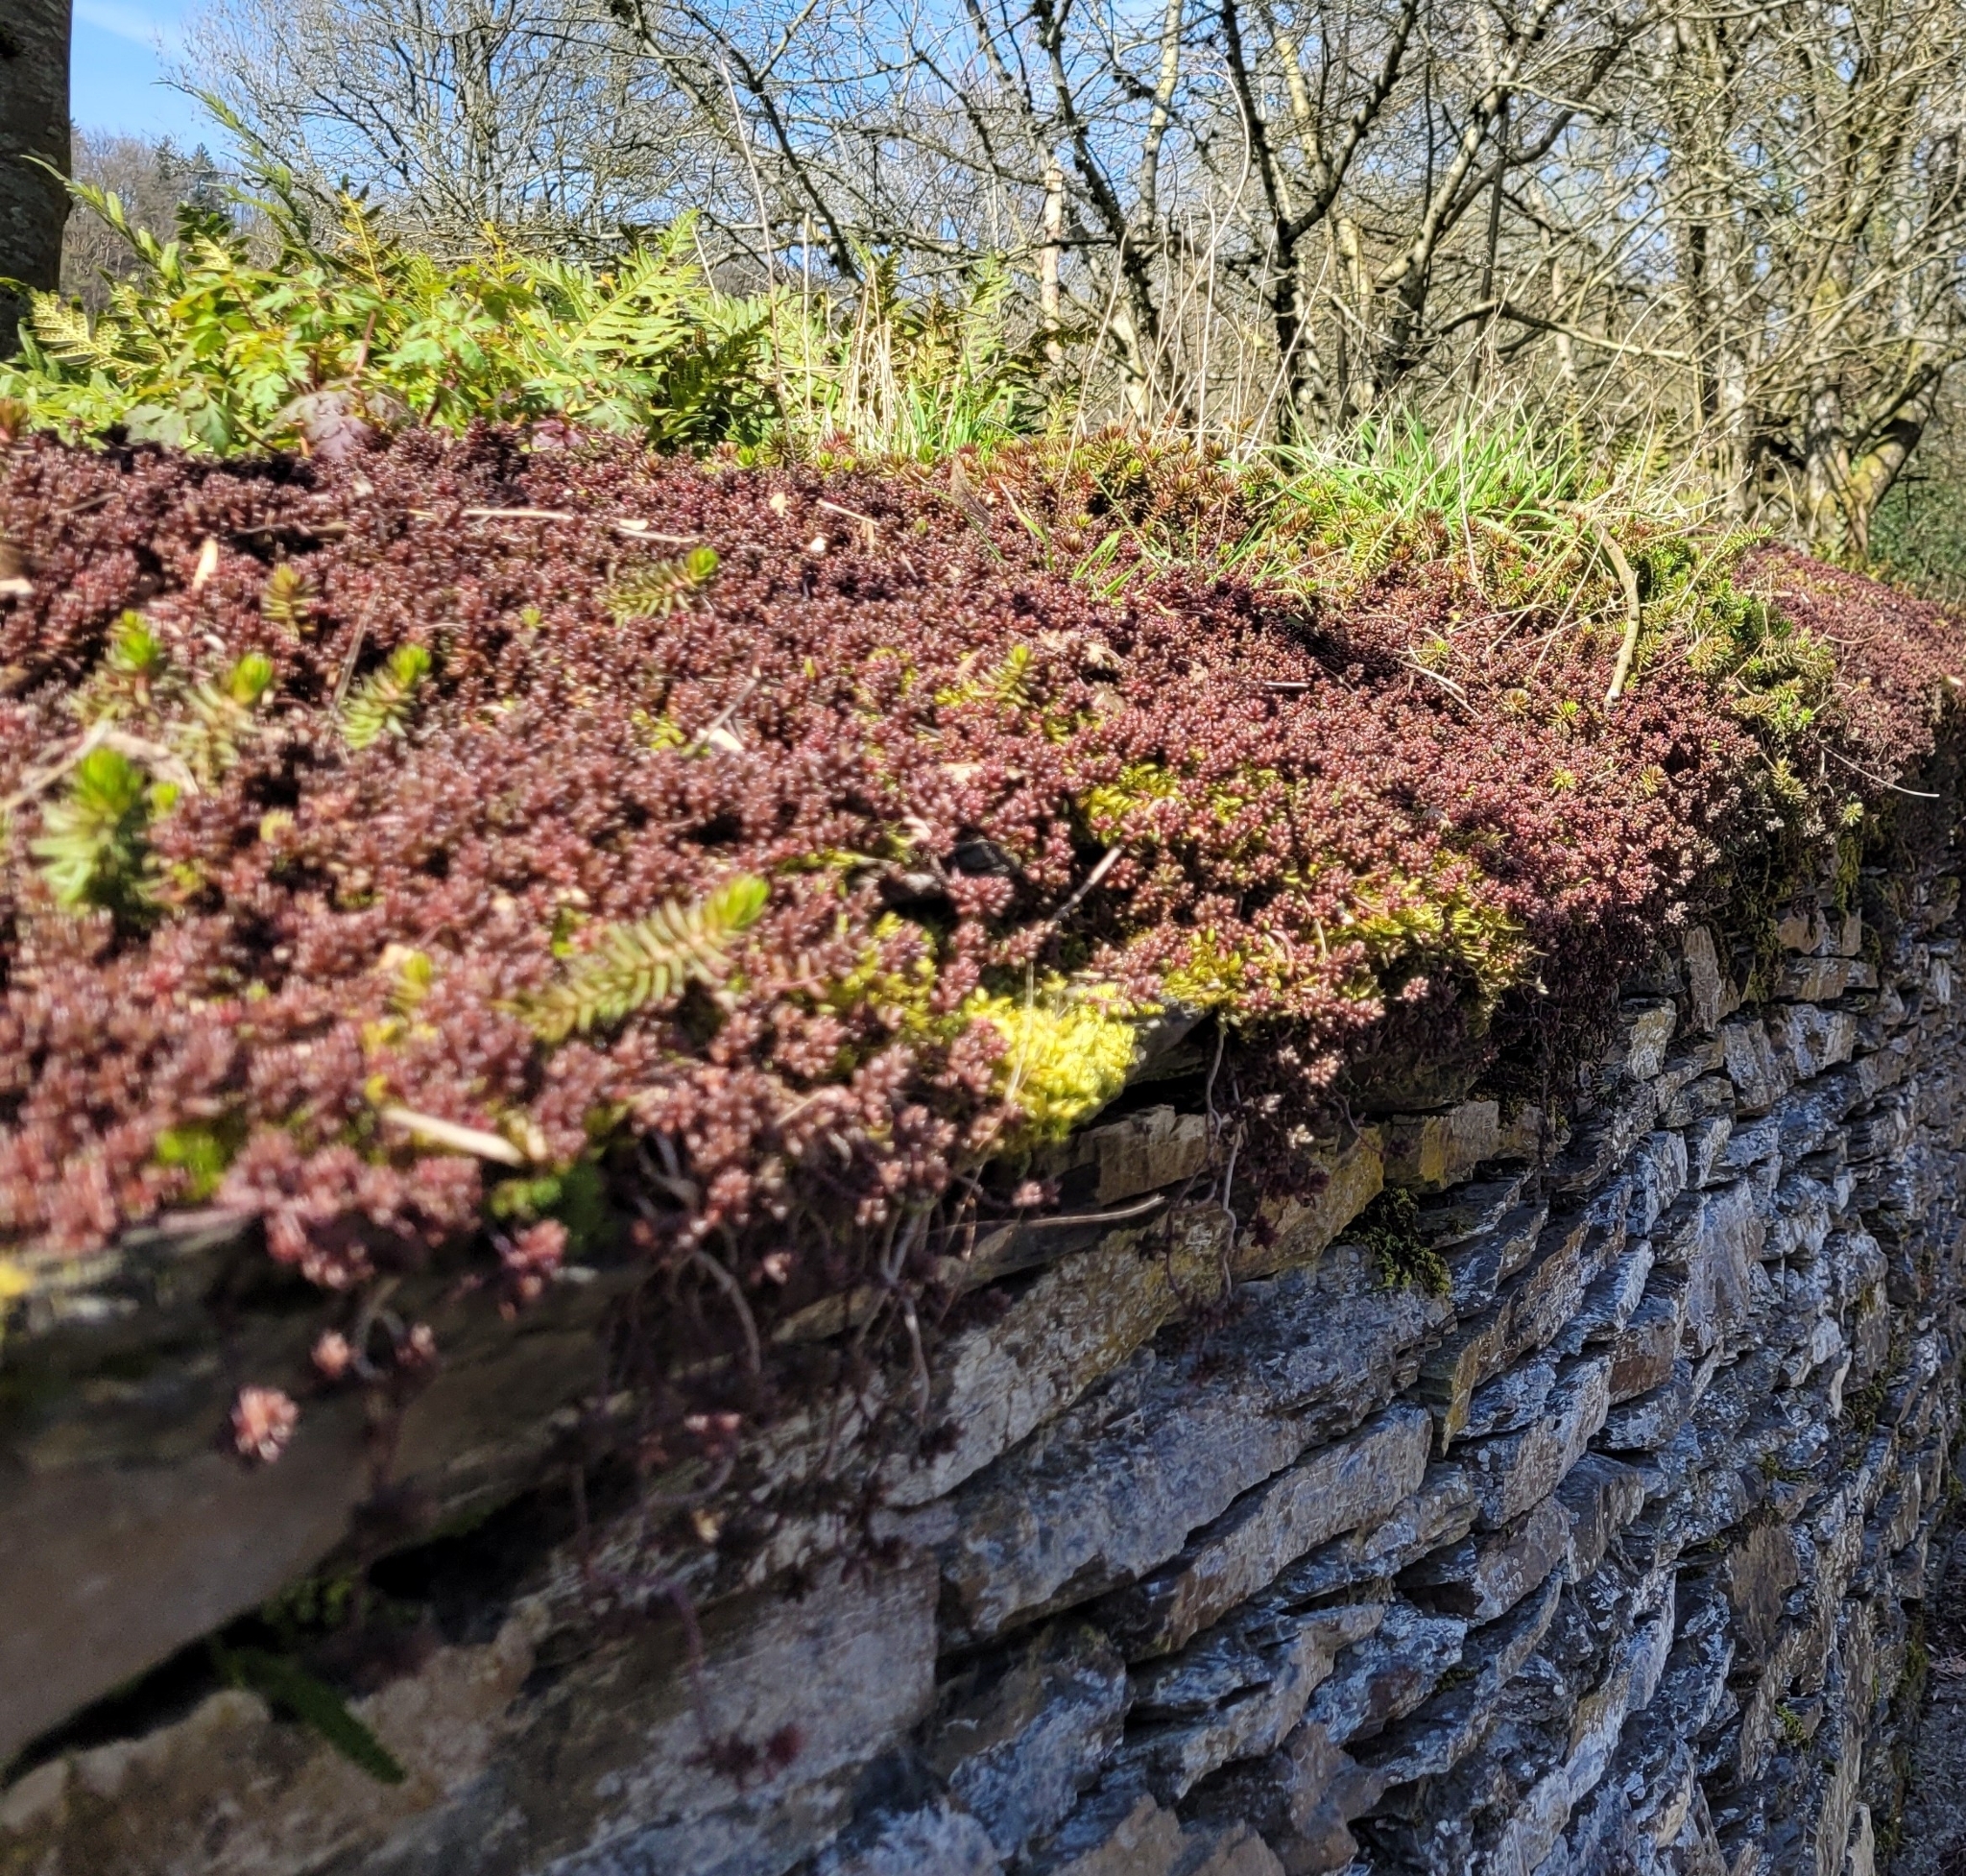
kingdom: Plantae
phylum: Tracheophyta
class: Magnoliopsida
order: Saxifragales
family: Crassulaceae
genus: Sedum
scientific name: Sedum album
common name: White stonecrop
